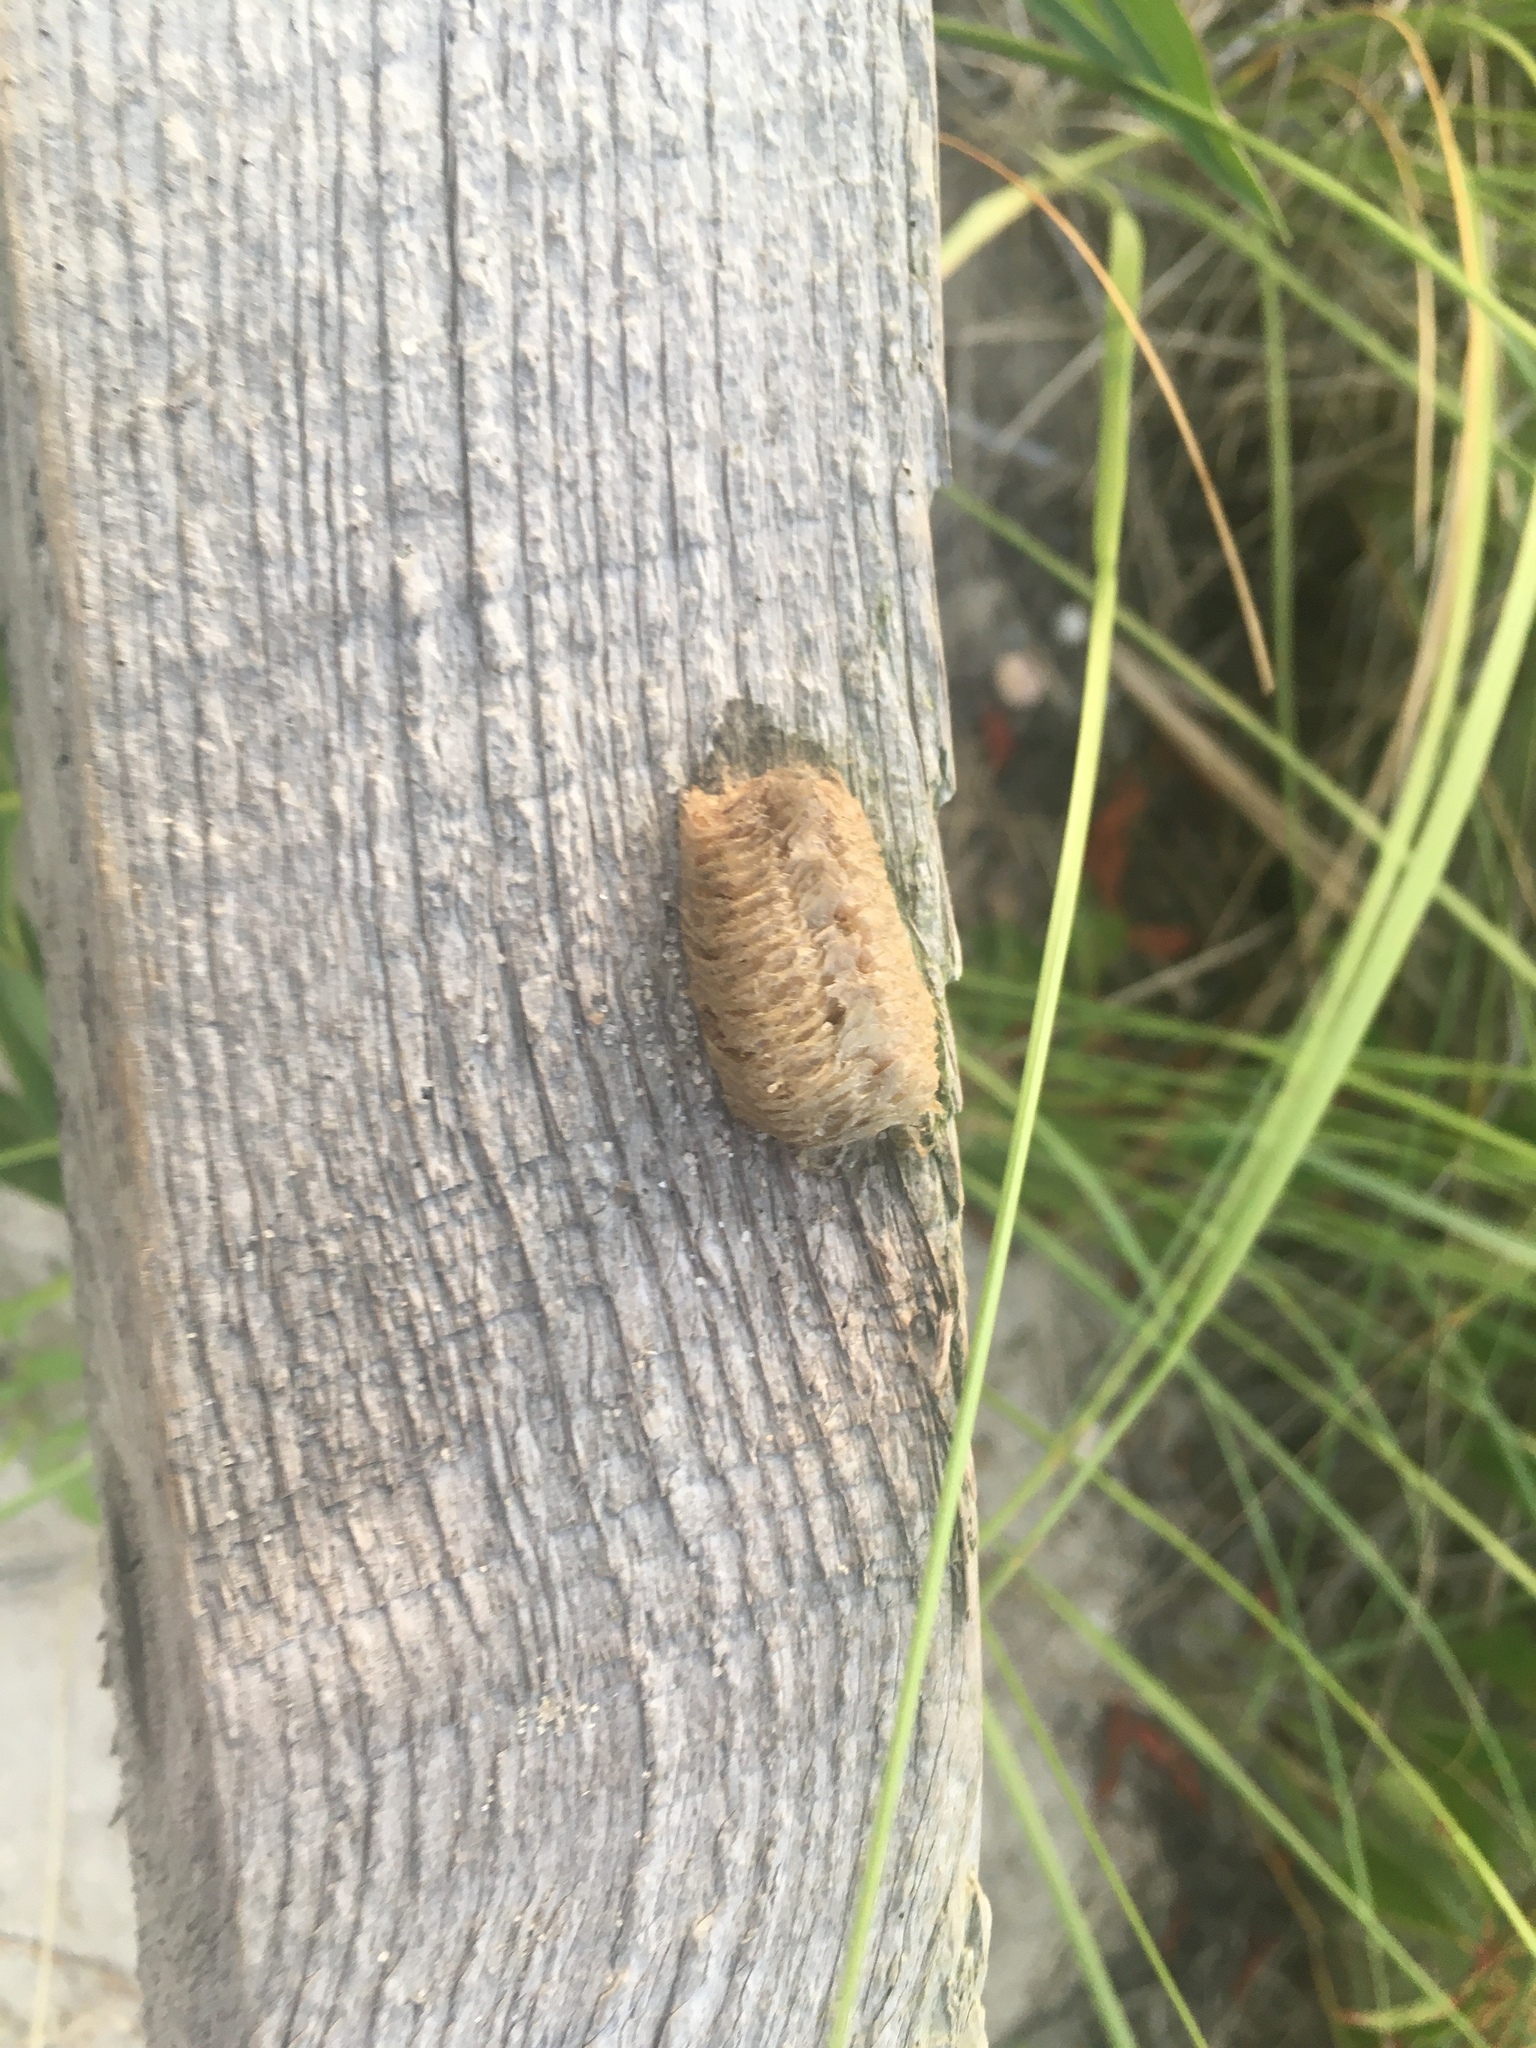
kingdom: Animalia
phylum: Arthropoda
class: Insecta
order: Mantodea
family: Mantidae
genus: Mantis
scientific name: Mantis religiosa
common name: Praying mantis
